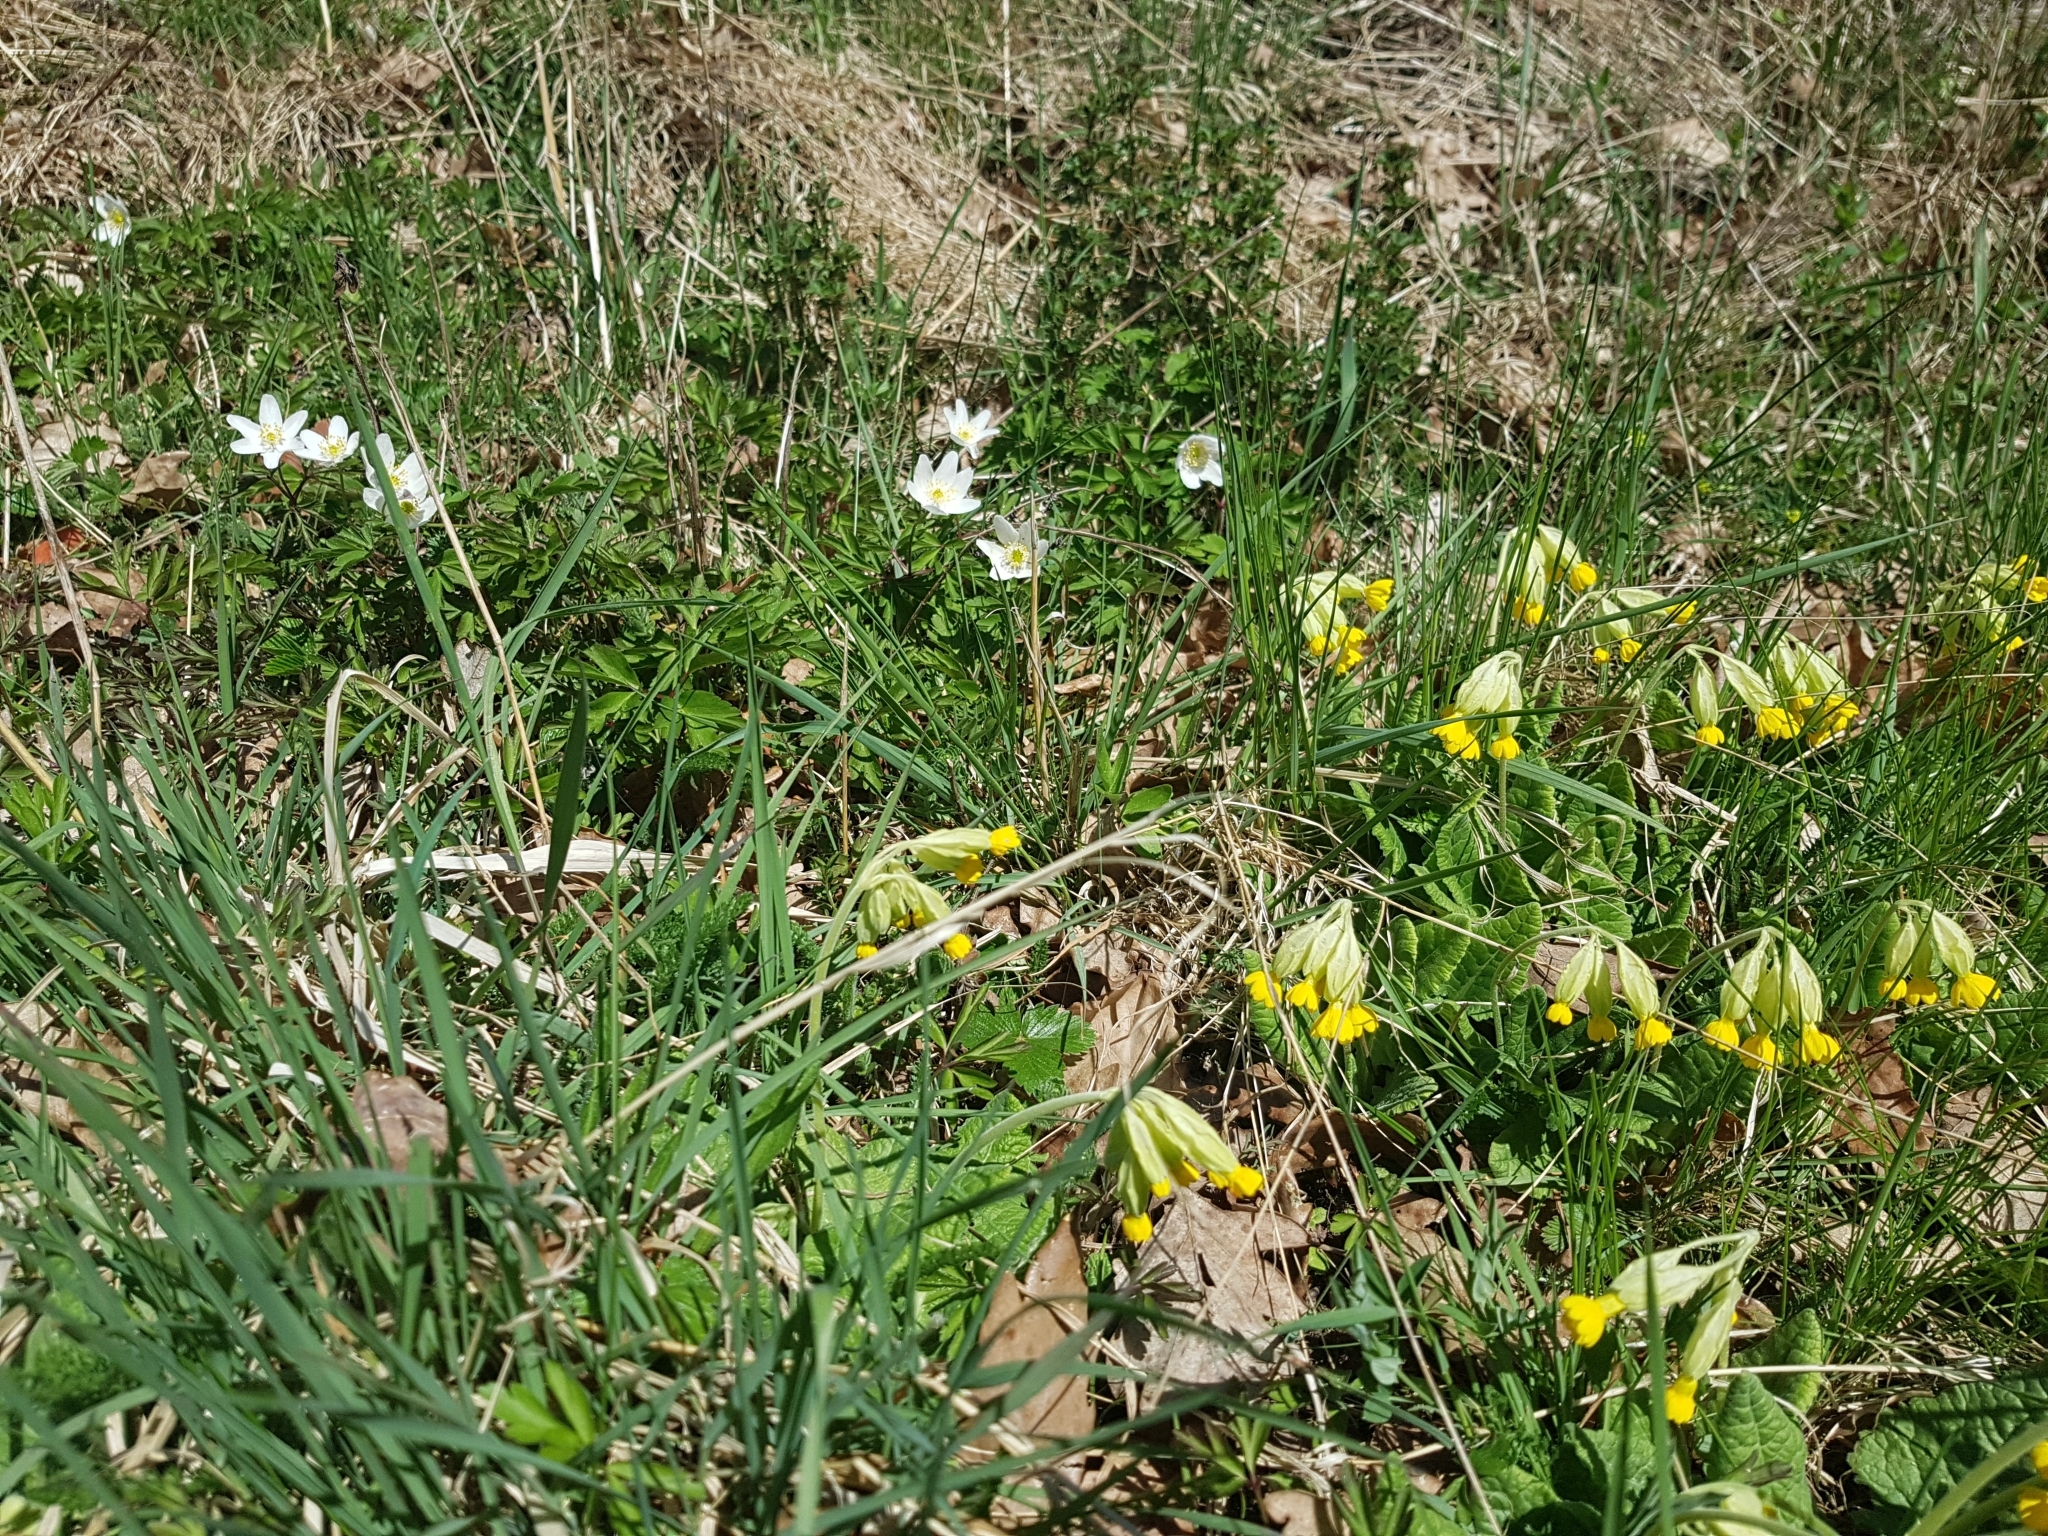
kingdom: Plantae
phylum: Tracheophyta
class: Magnoliopsida
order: Ericales
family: Primulaceae
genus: Primula
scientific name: Primula veris
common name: Cowslip
